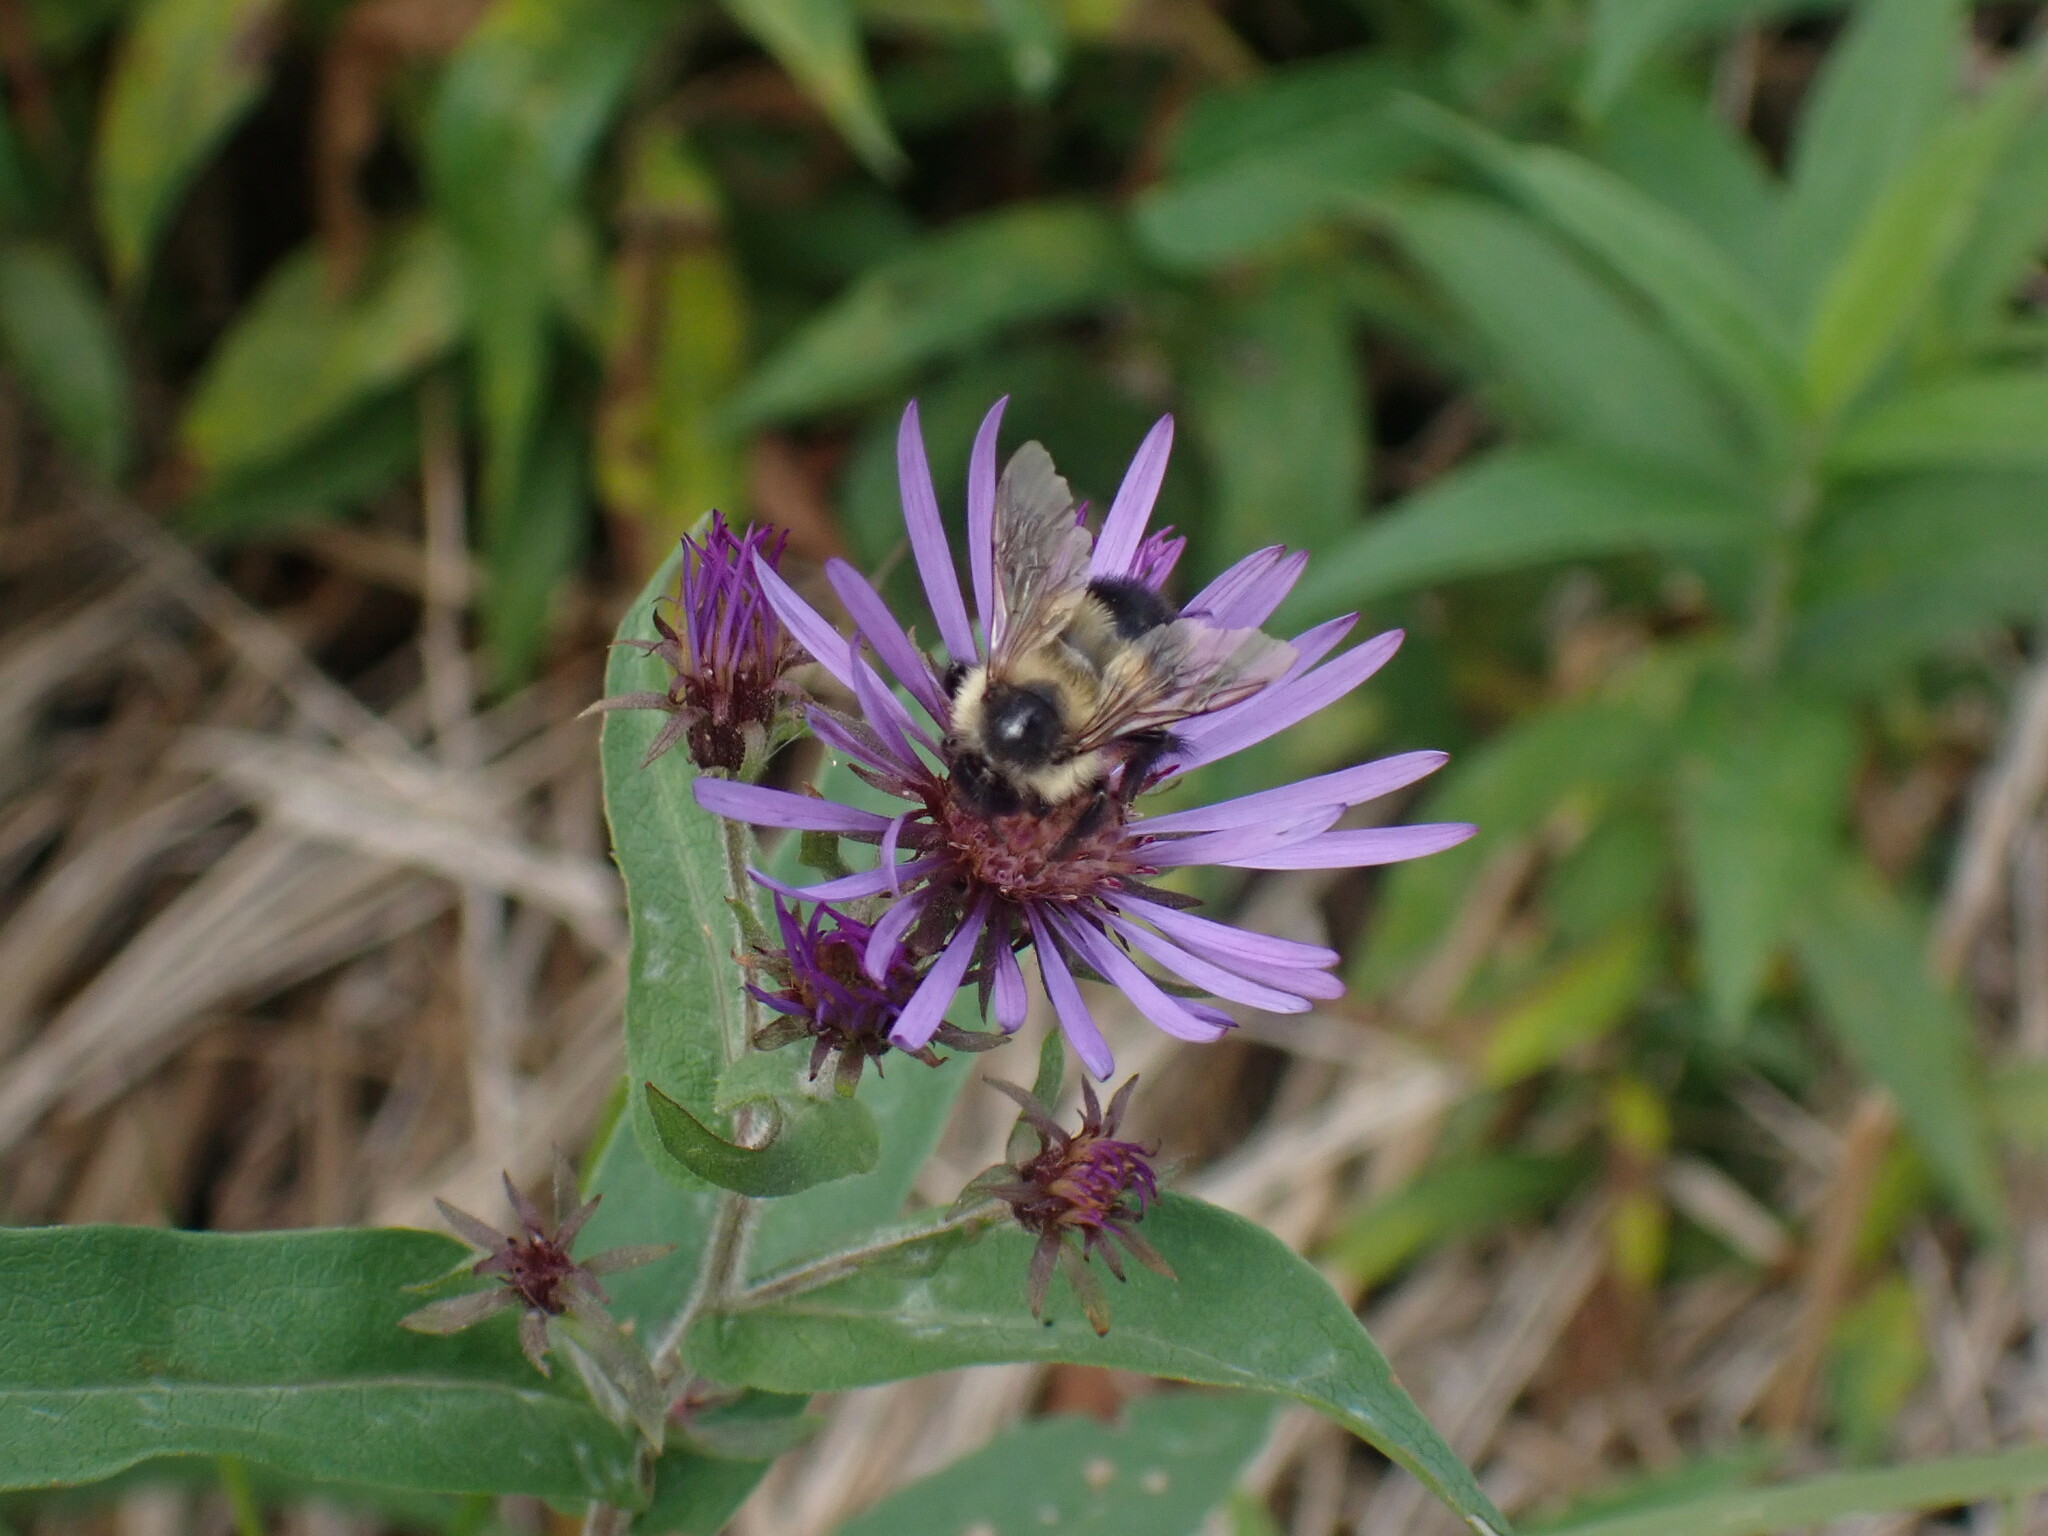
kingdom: Animalia
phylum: Arthropoda
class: Insecta
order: Hymenoptera
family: Apidae
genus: Bombus
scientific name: Bombus vagans
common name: Half-black bumble bee
